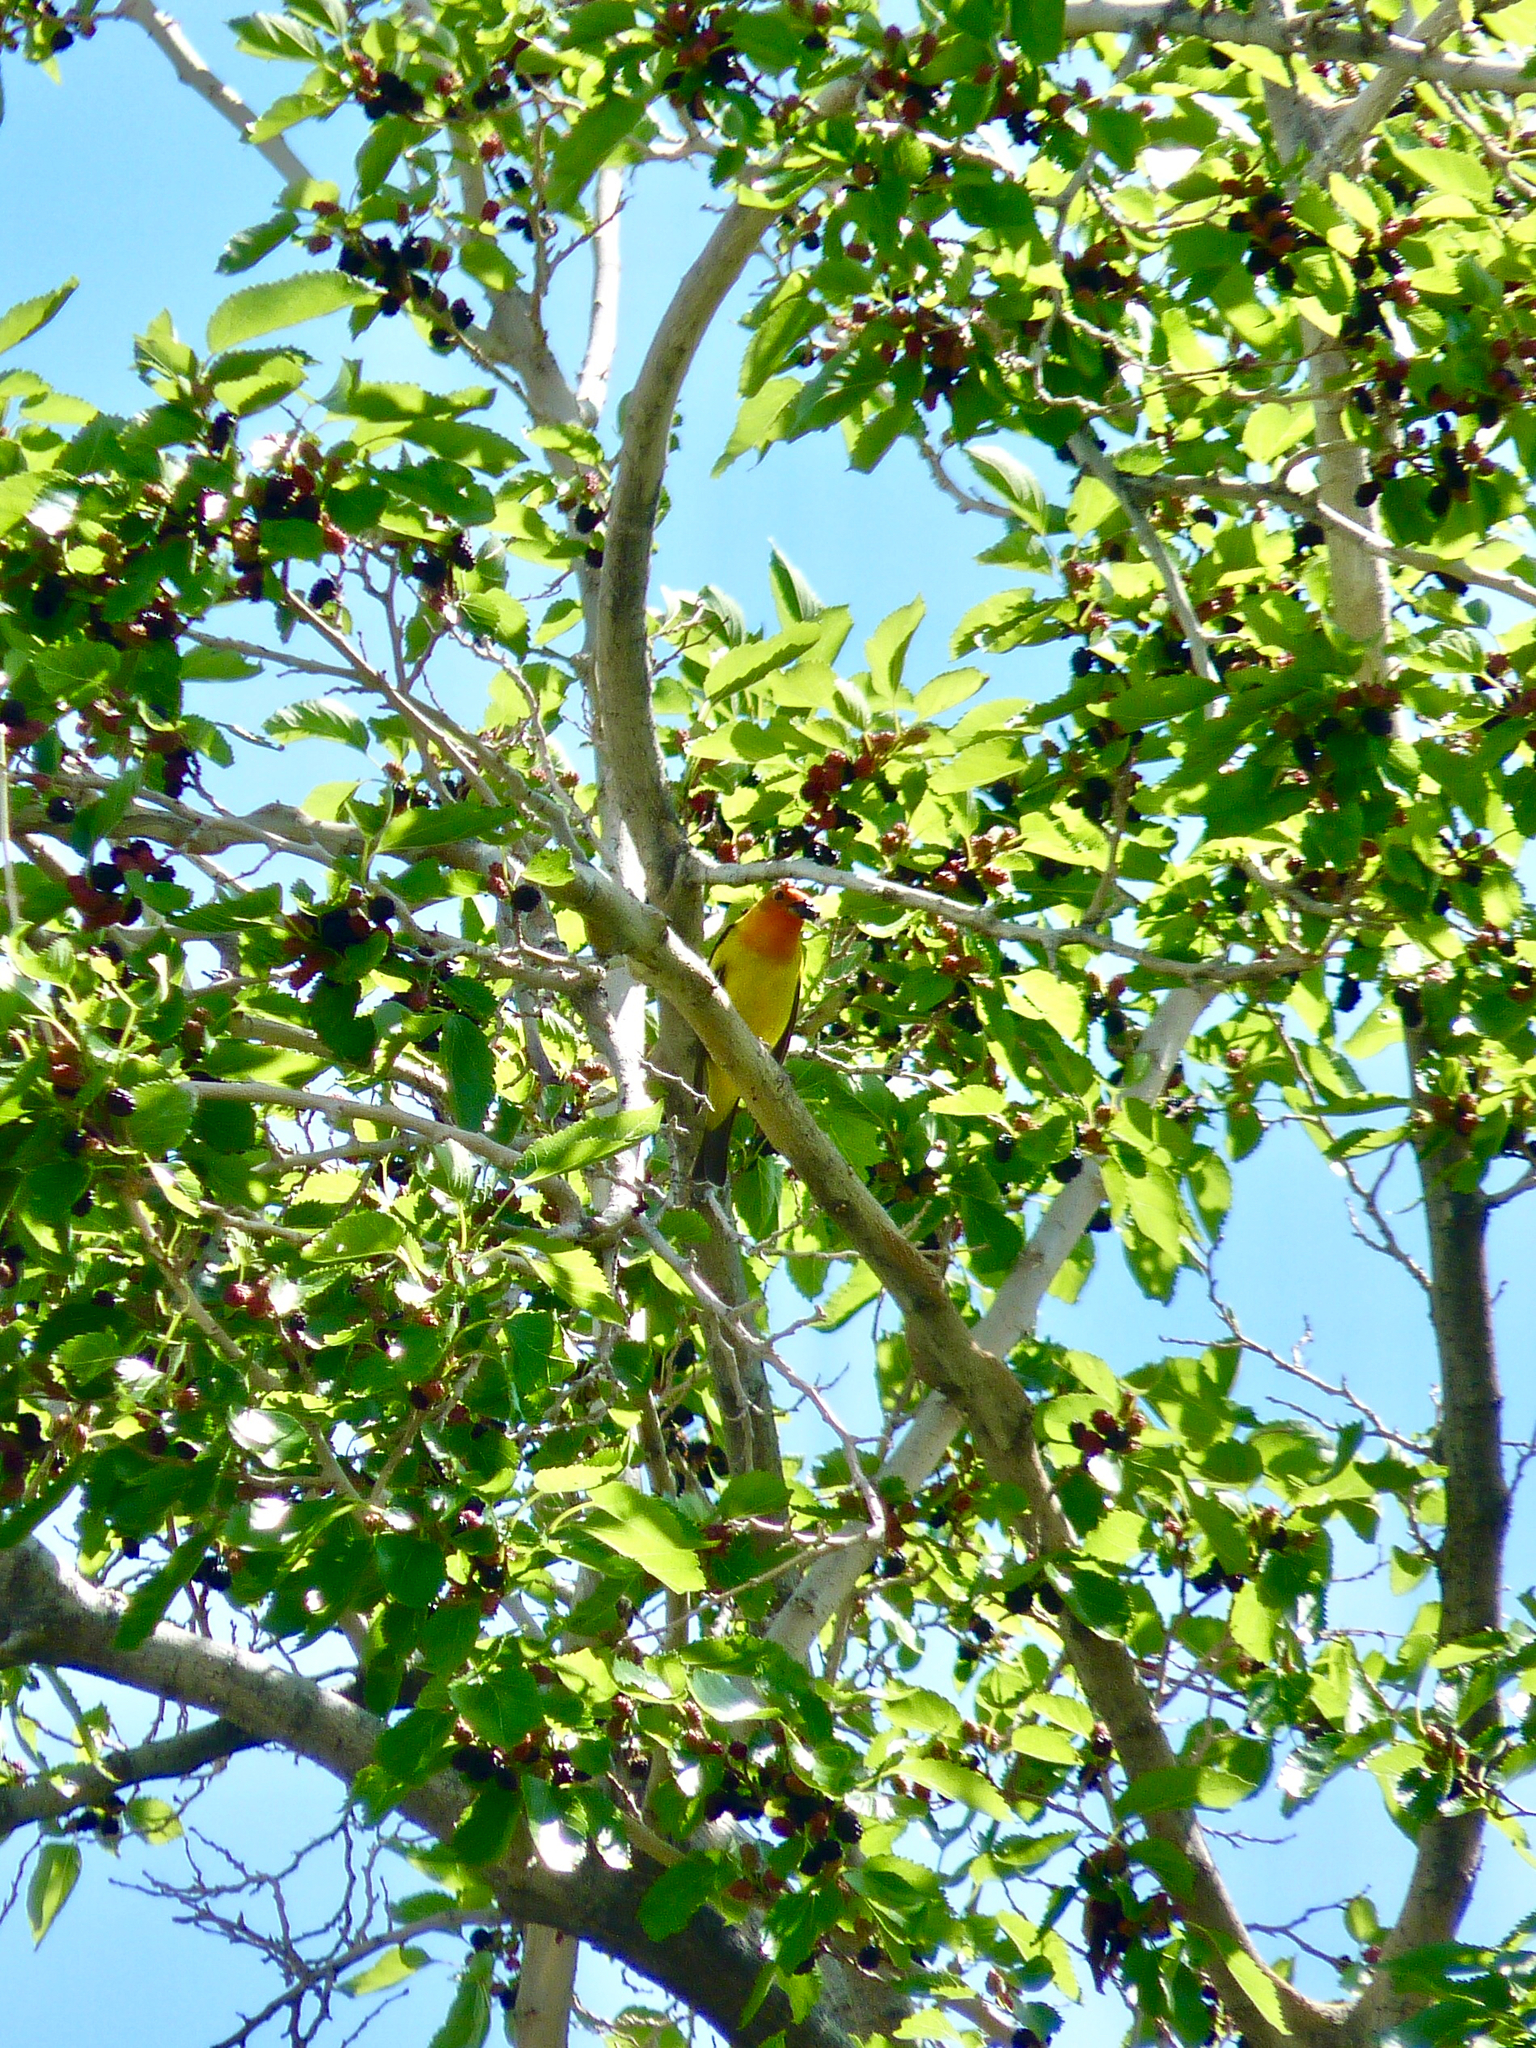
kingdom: Animalia
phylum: Chordata
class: Aves
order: Passeriformes
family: Cardinalidae
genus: Piranga
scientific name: Piranga ludoviciana
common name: Western tanager
